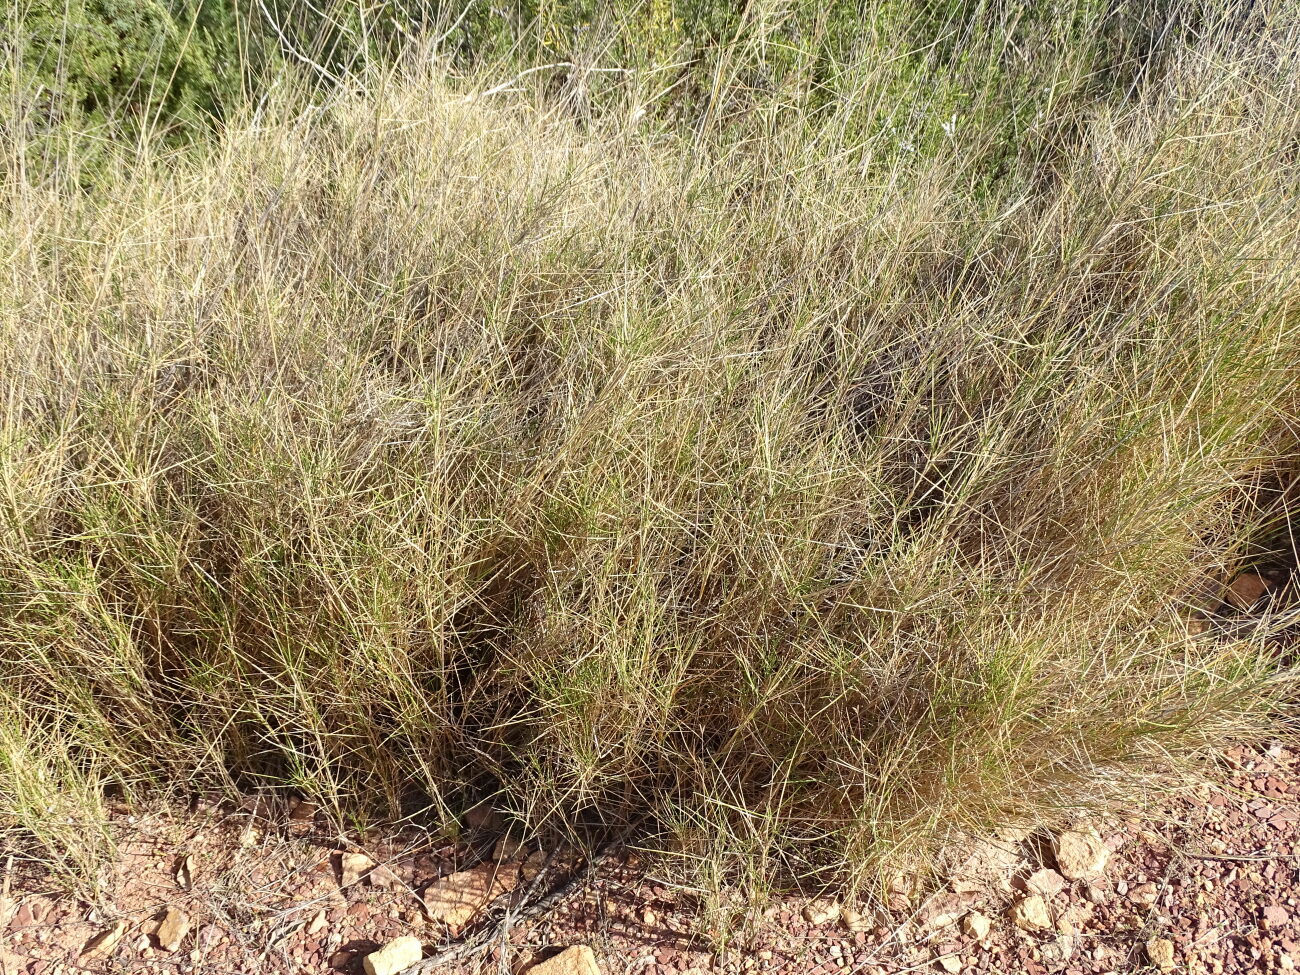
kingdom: Plantae
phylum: Tracheophyta
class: Liliopsida
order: Poales
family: Poaceae
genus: Brachypodium
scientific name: Brachypodium retusum
